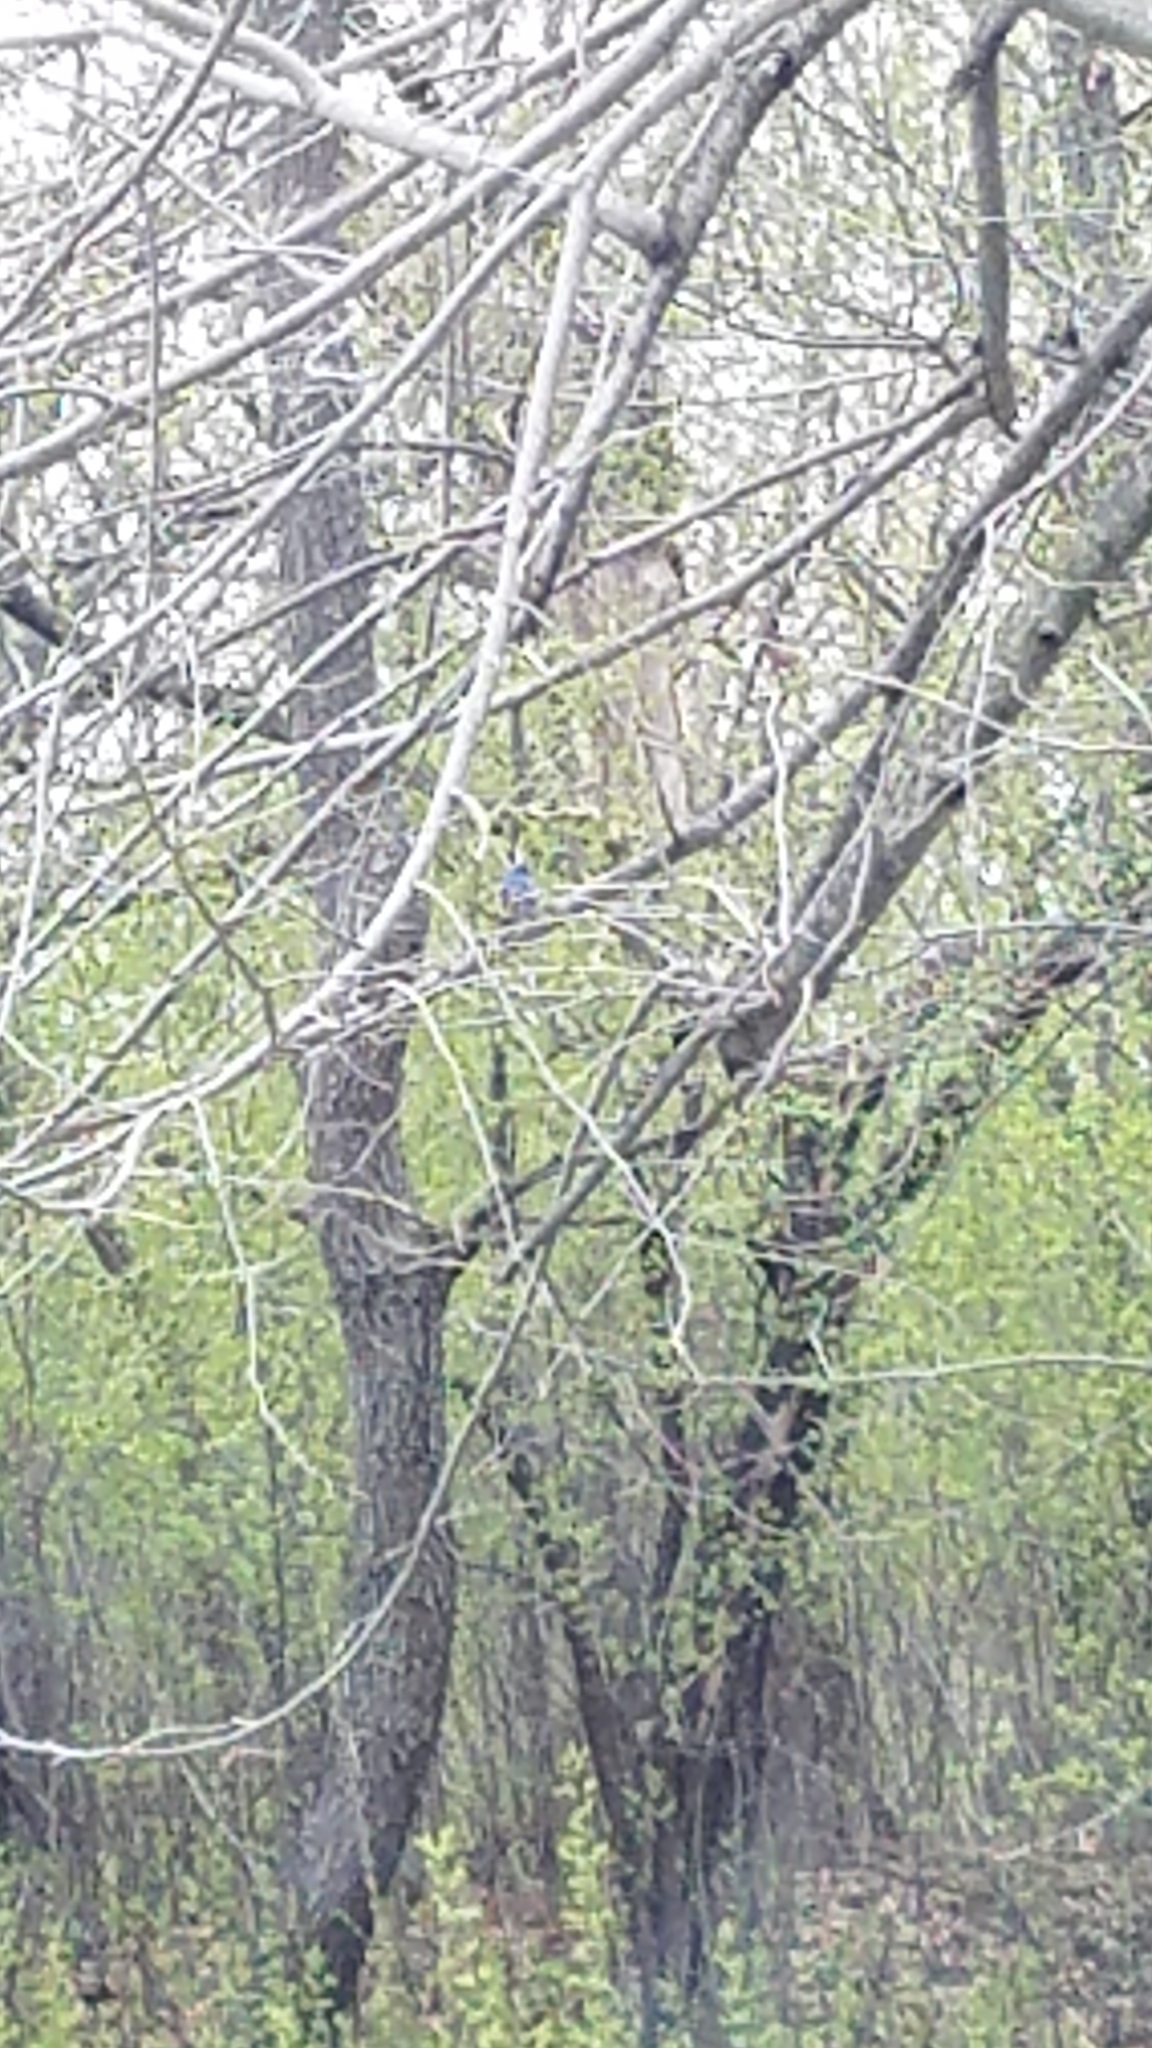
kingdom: Animalia
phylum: Chordata
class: Aves
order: Passeriformes
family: Turdidae
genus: Sialia
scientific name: Sialia sialis
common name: Eastern bluebird
